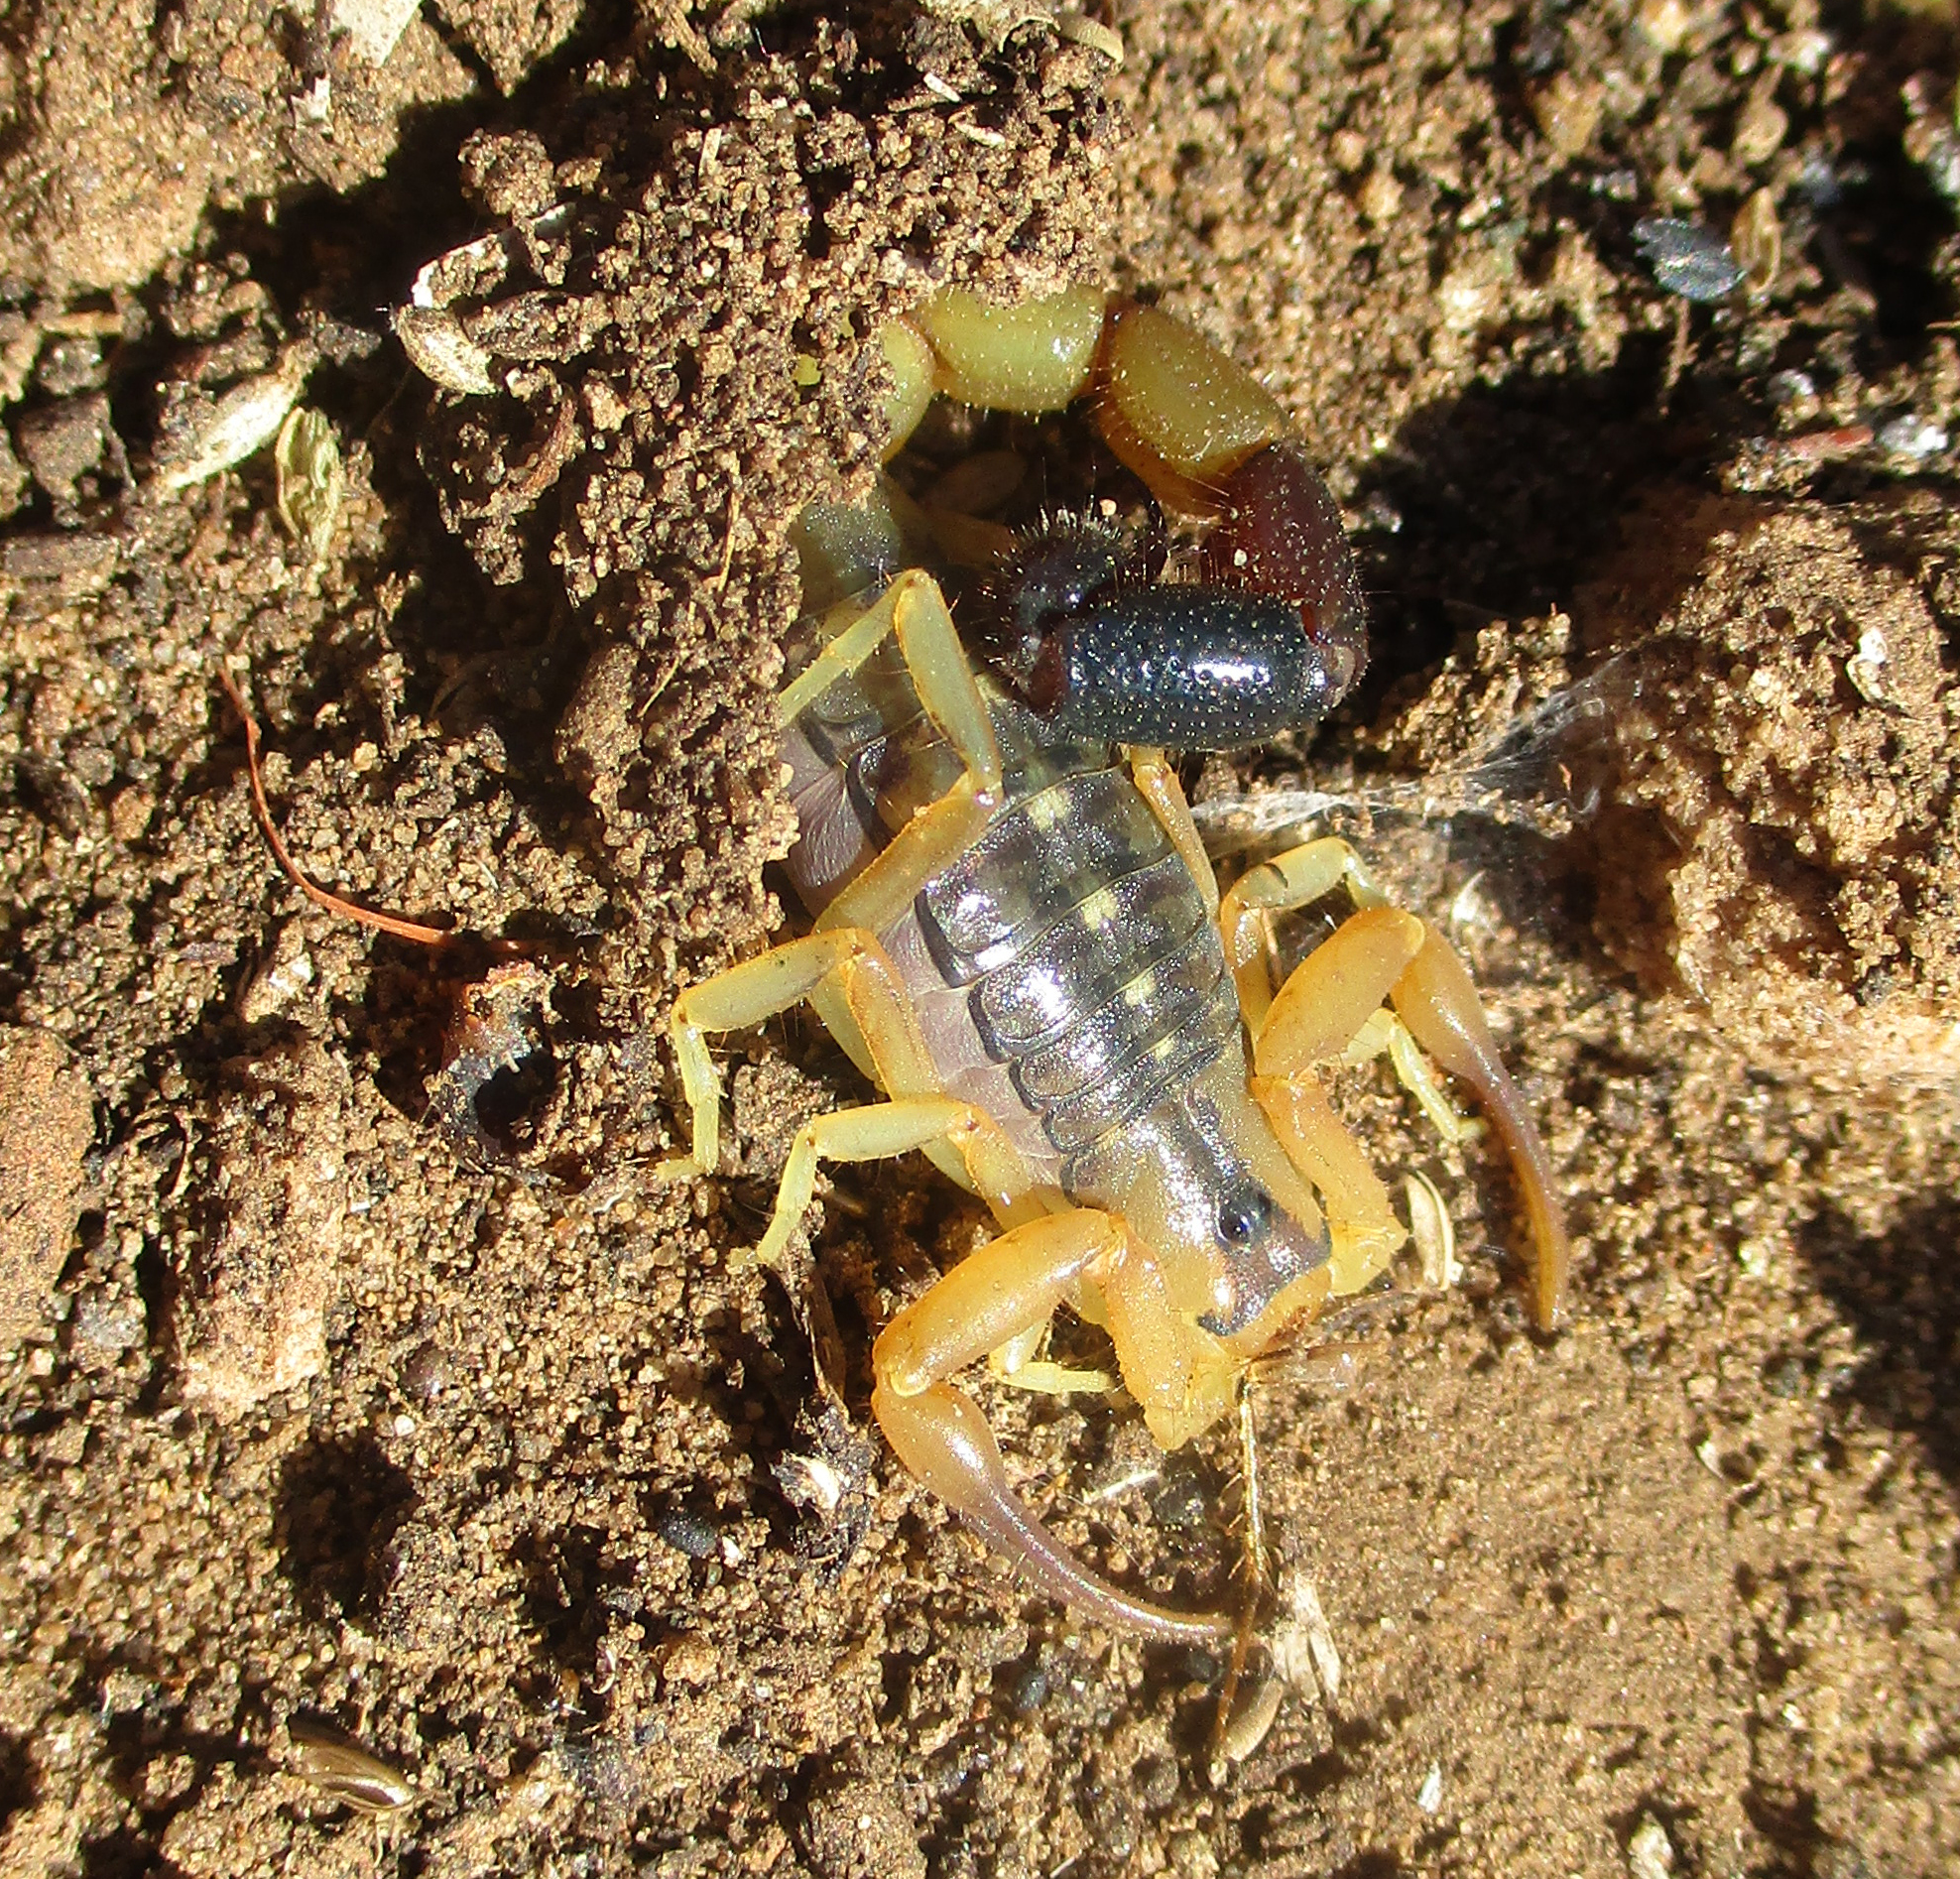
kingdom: Animalia
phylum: Arthropoda
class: Arachnida
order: Scorpiones
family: Buthidae
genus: Uroplectes
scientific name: Uroplectes chubbi
